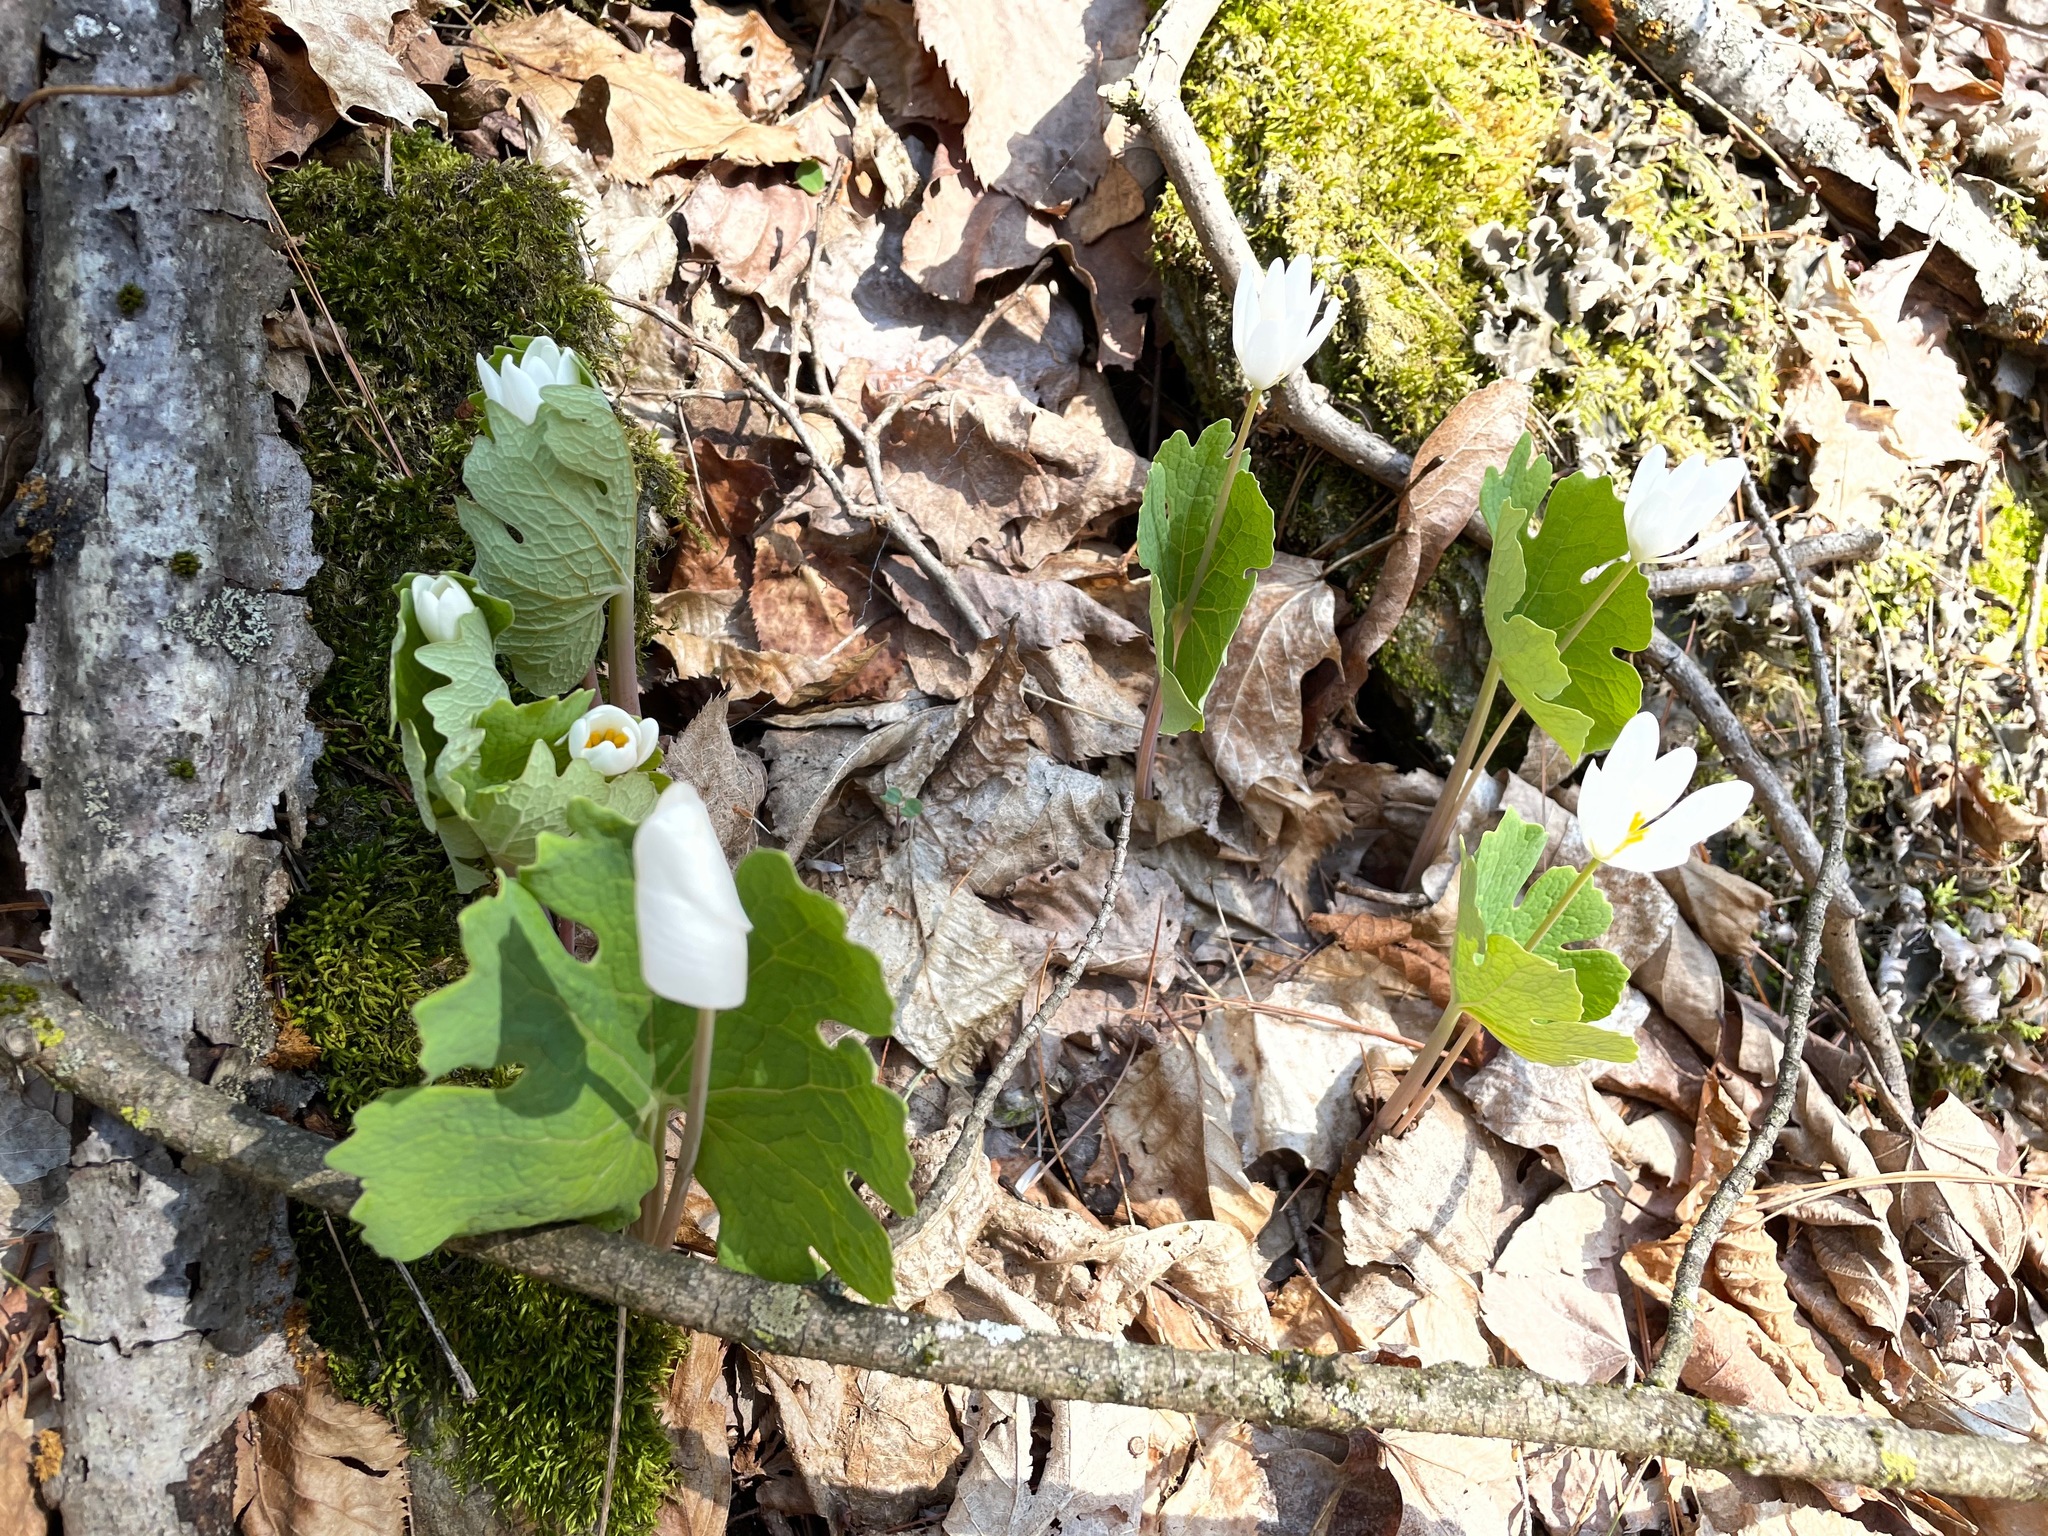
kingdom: Plantae
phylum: Tracheophyta
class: Magnoliopsida
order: Ranunculales
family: Papaveraceae
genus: Sanguinaria
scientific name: Sanguinaria canadensis
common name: Bloodroot
